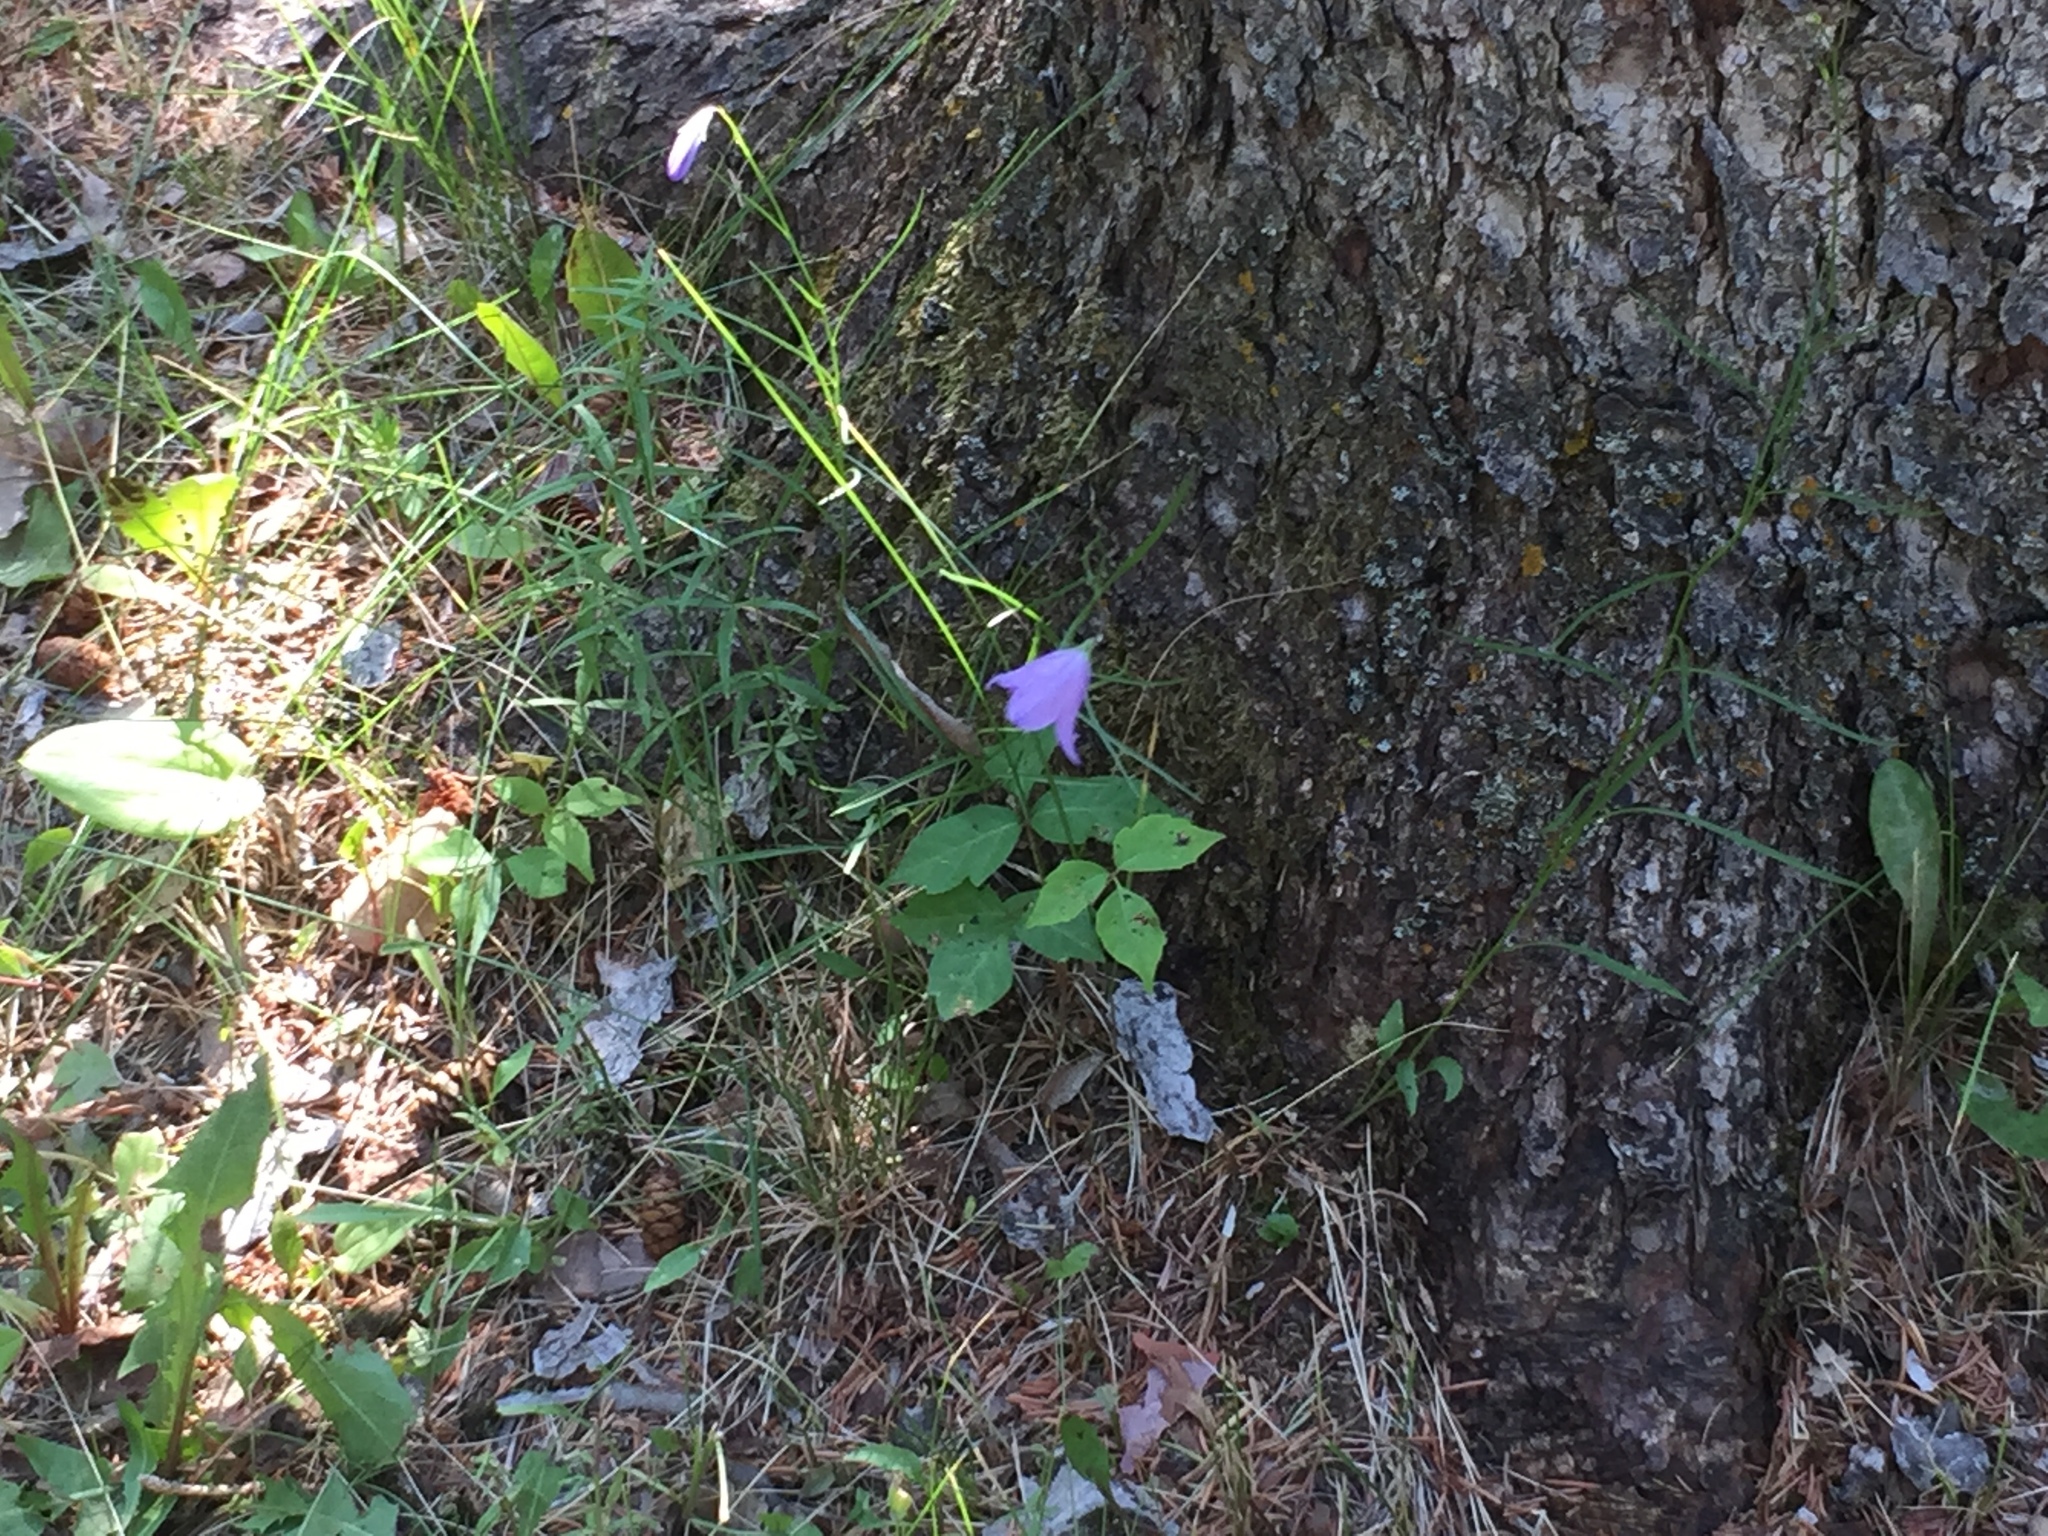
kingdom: Plantae
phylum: Tracheophyta
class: Magnoliopsida
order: Asterales
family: Campanulaceae
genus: Campanula
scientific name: Campanula petiolata
